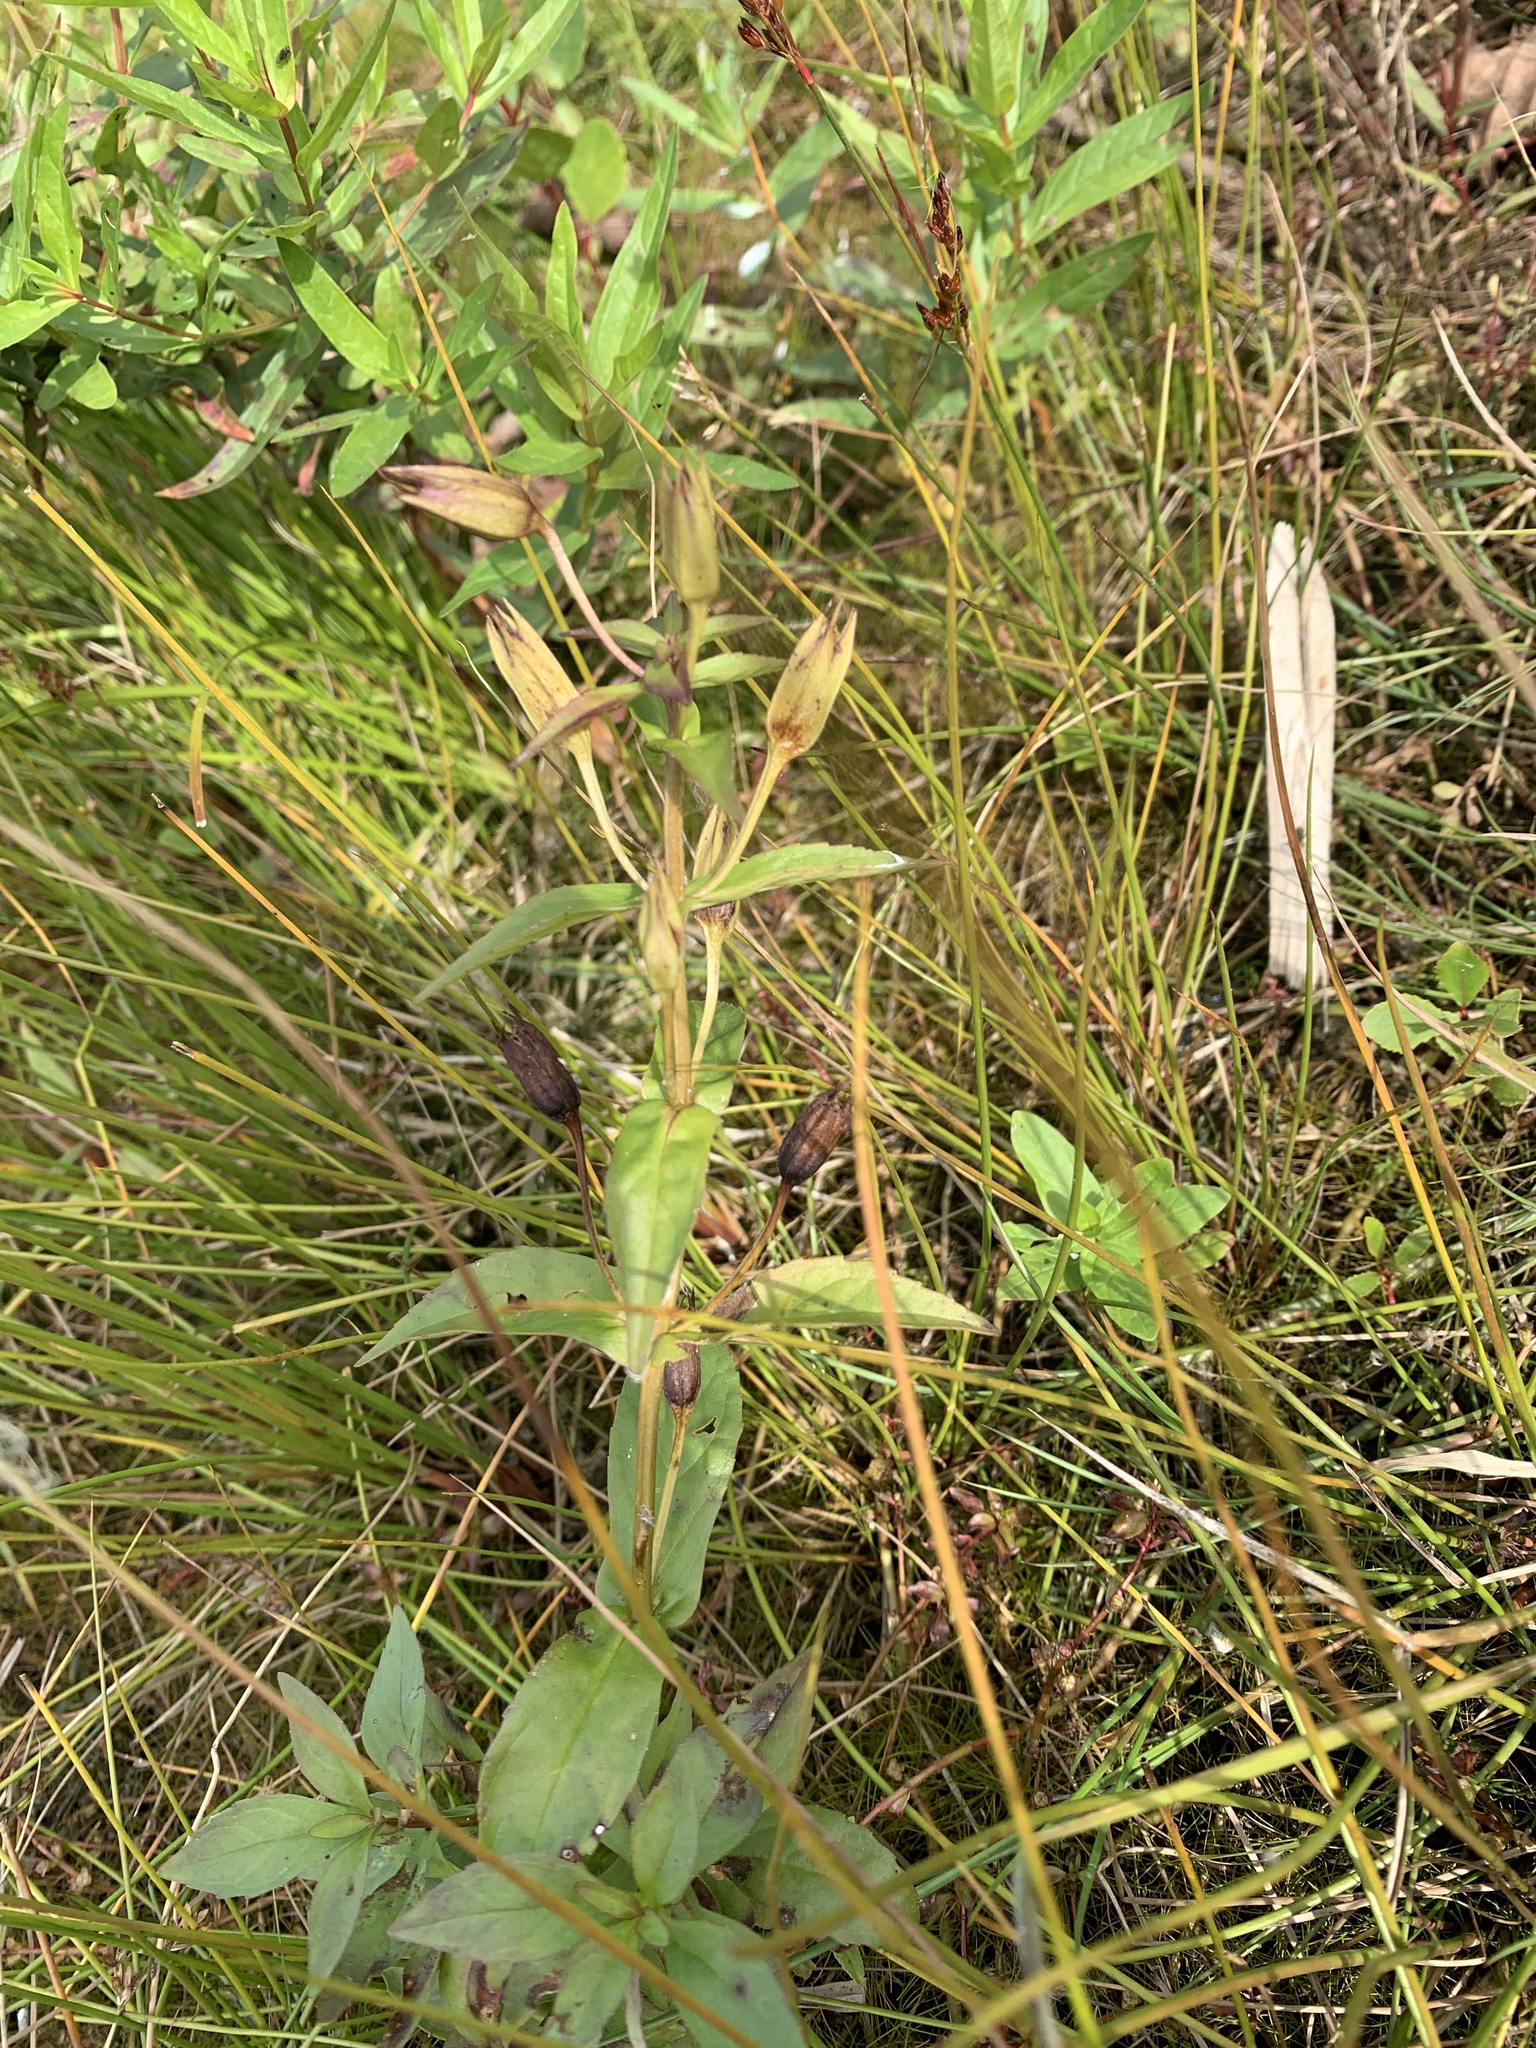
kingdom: Plantae
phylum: Tracheophyta
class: Magnoliopsida
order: Lamiales
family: Phrymaceae
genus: Mimulus
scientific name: Mimulus ringens
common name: Allegheny monkeyflower
